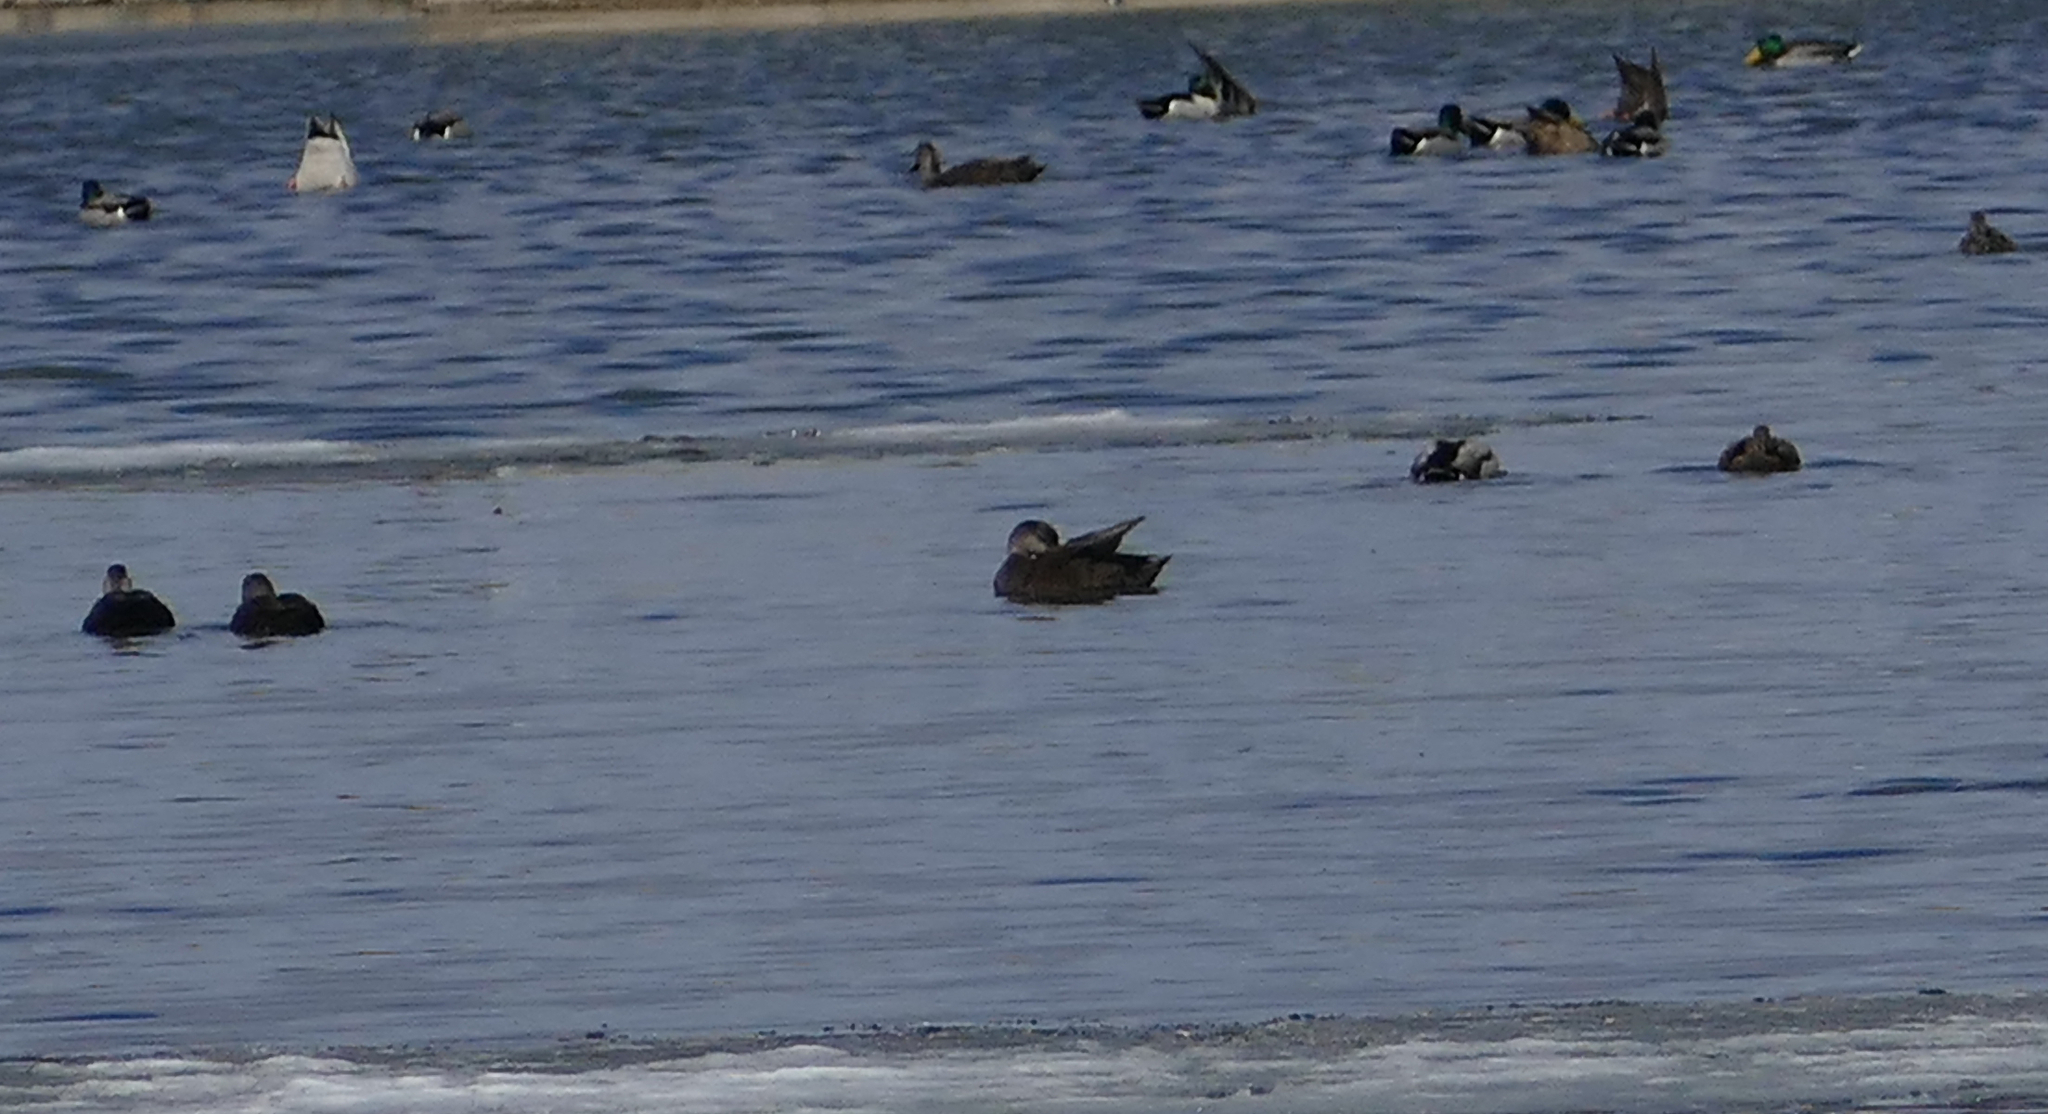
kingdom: Animalia
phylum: Chordata
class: Aves
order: Anseriformes
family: Anatidae
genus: Anas
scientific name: Anas rubripes
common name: American black duck
